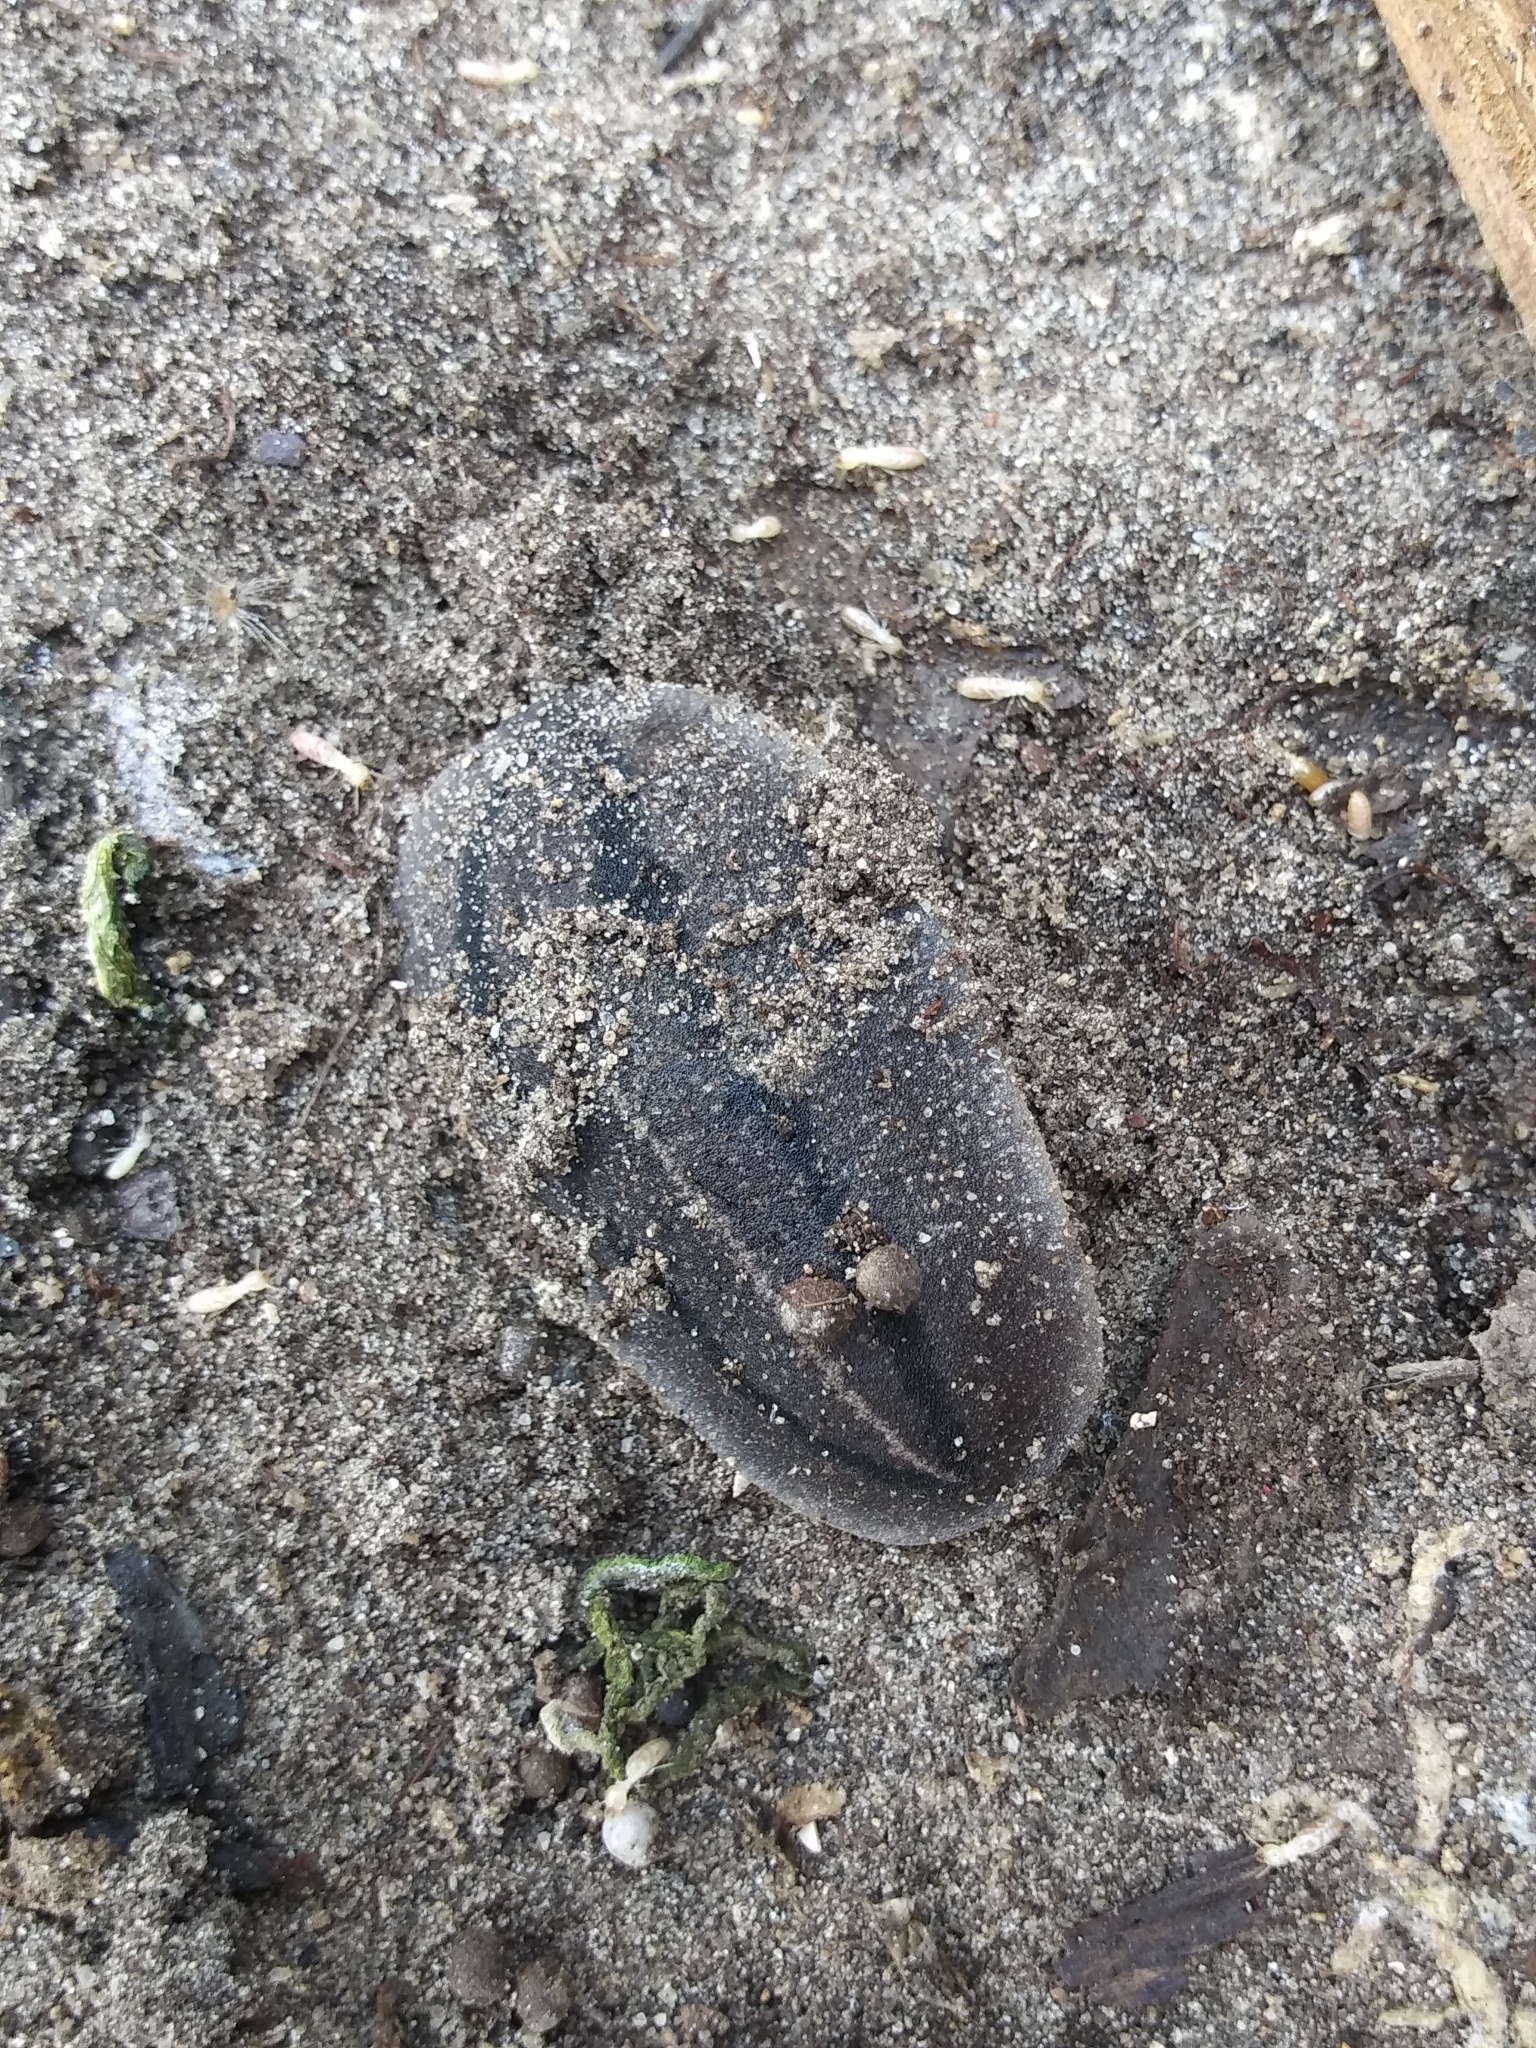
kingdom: Animalia
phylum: Mollusca
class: Gastropoda
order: Systellommatophora
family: Veronicellidae
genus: Leidyula
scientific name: Leidyula floridana
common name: Florida leatherleaf
